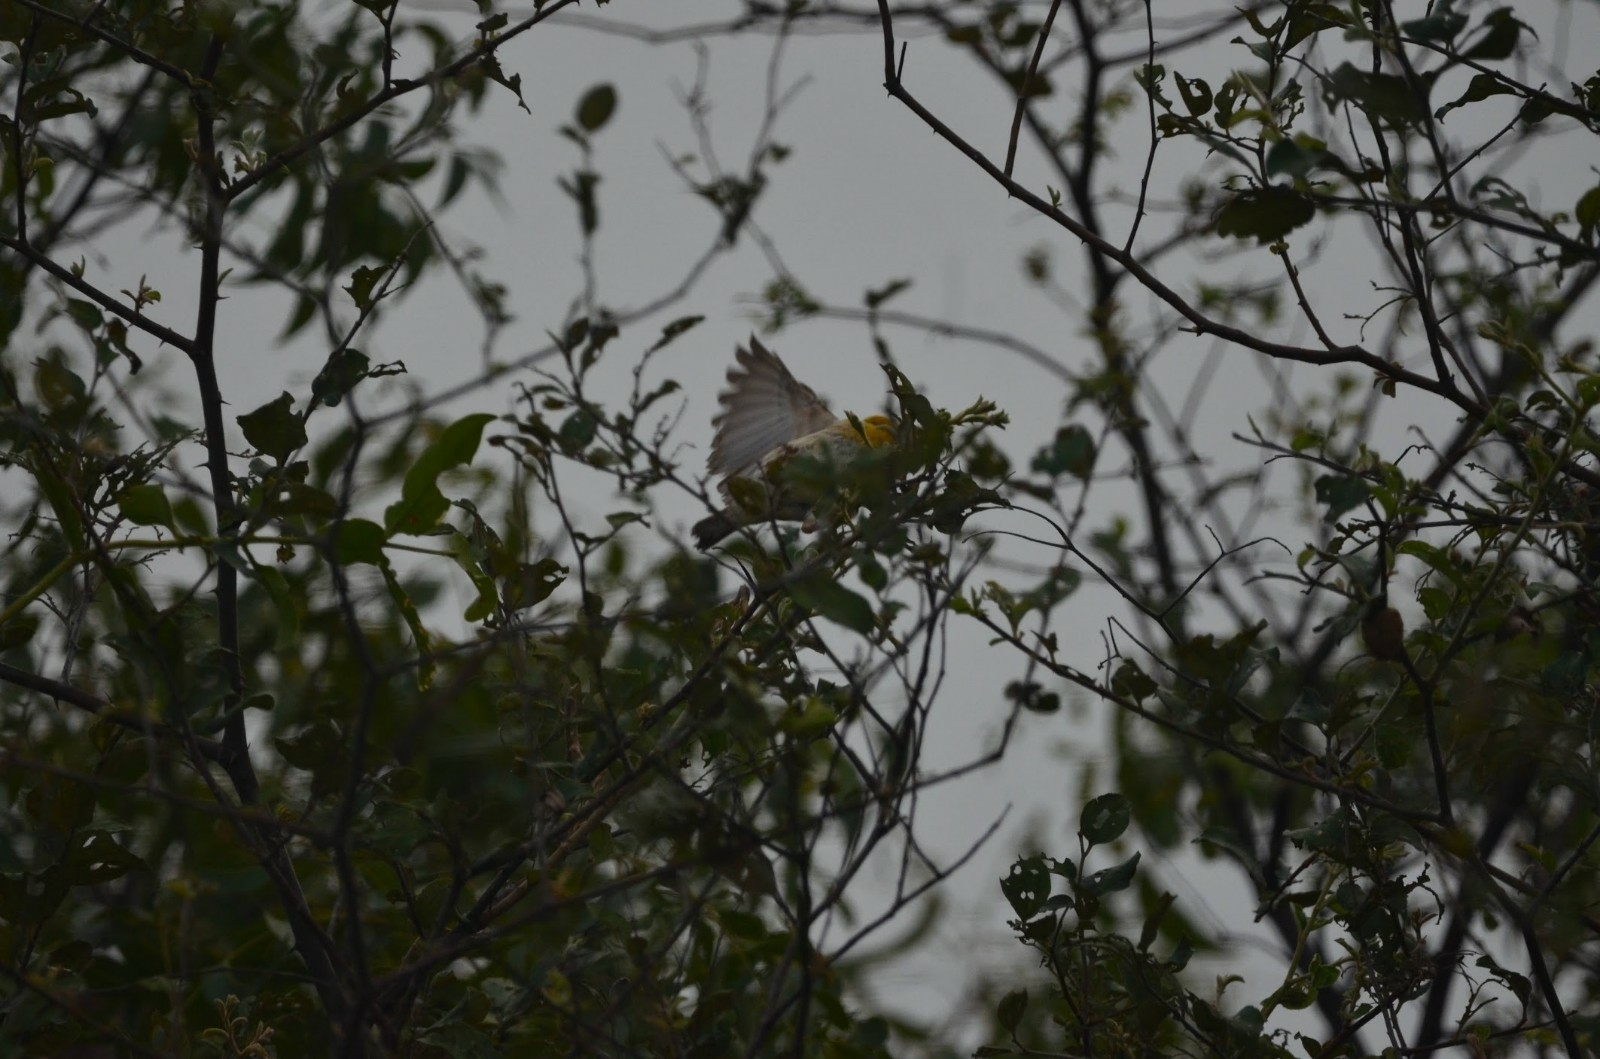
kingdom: Animalia
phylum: Chordata
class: Aves
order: Passeriformes
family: Ploceidae
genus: Ploceus
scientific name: Ploceus philippinus
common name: Baya weaver
